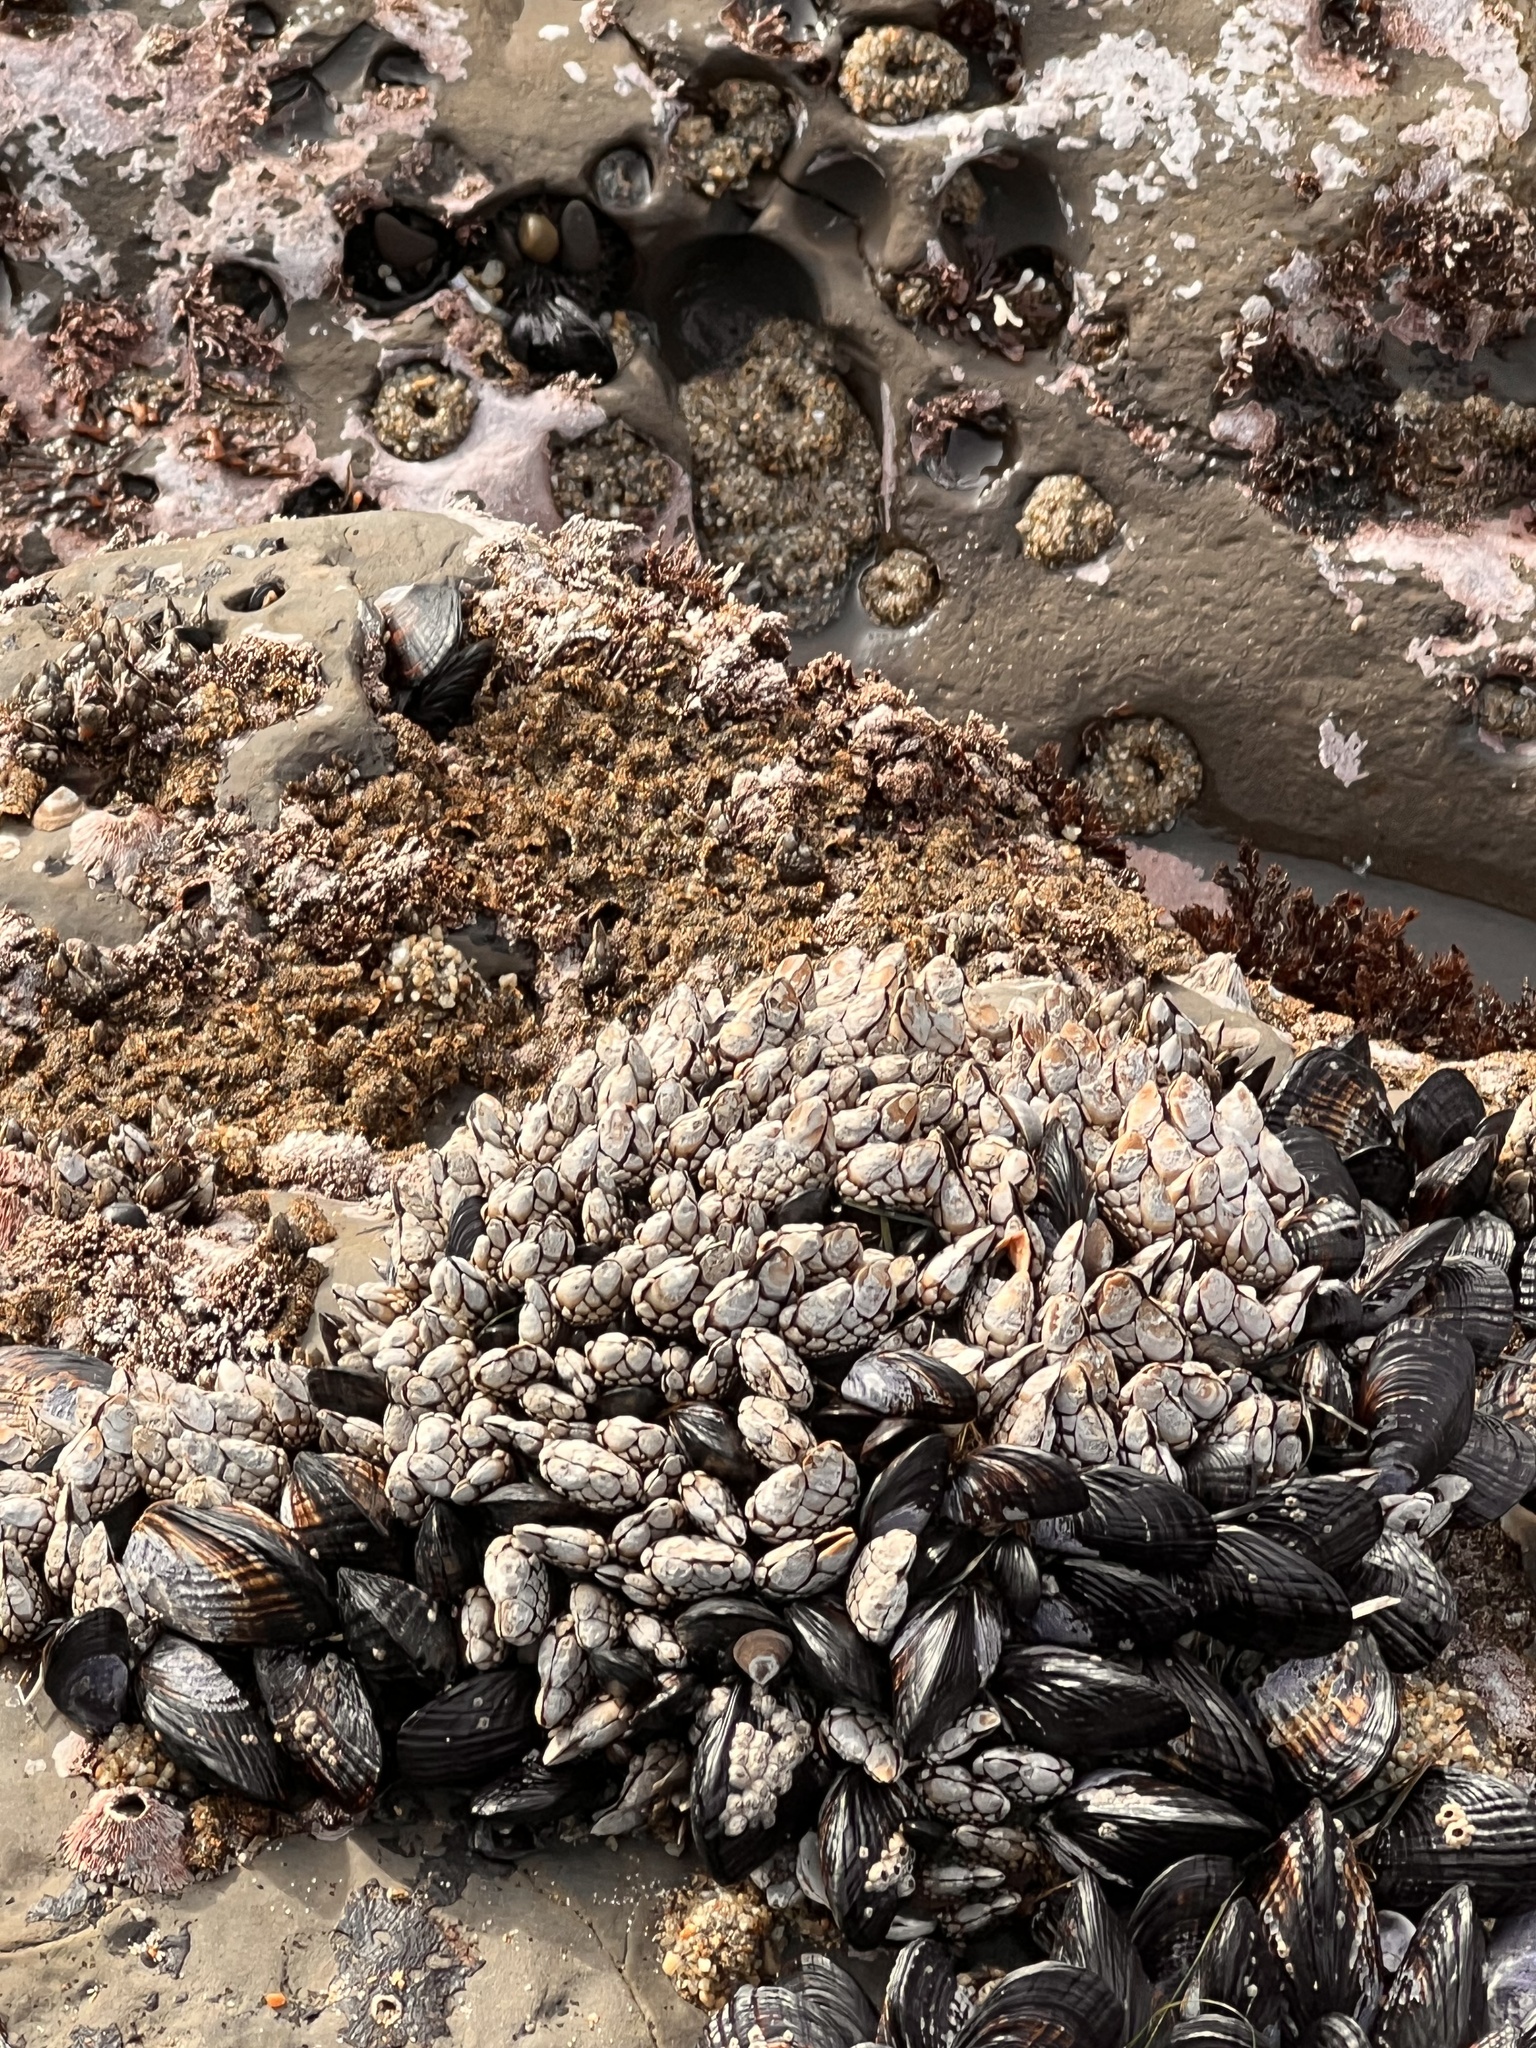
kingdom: Animalia
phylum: Arthropoda
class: Maxillopoda
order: Pedunculata
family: Pollicipedidae
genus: Pollicipes
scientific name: Pollicipes polymerus
